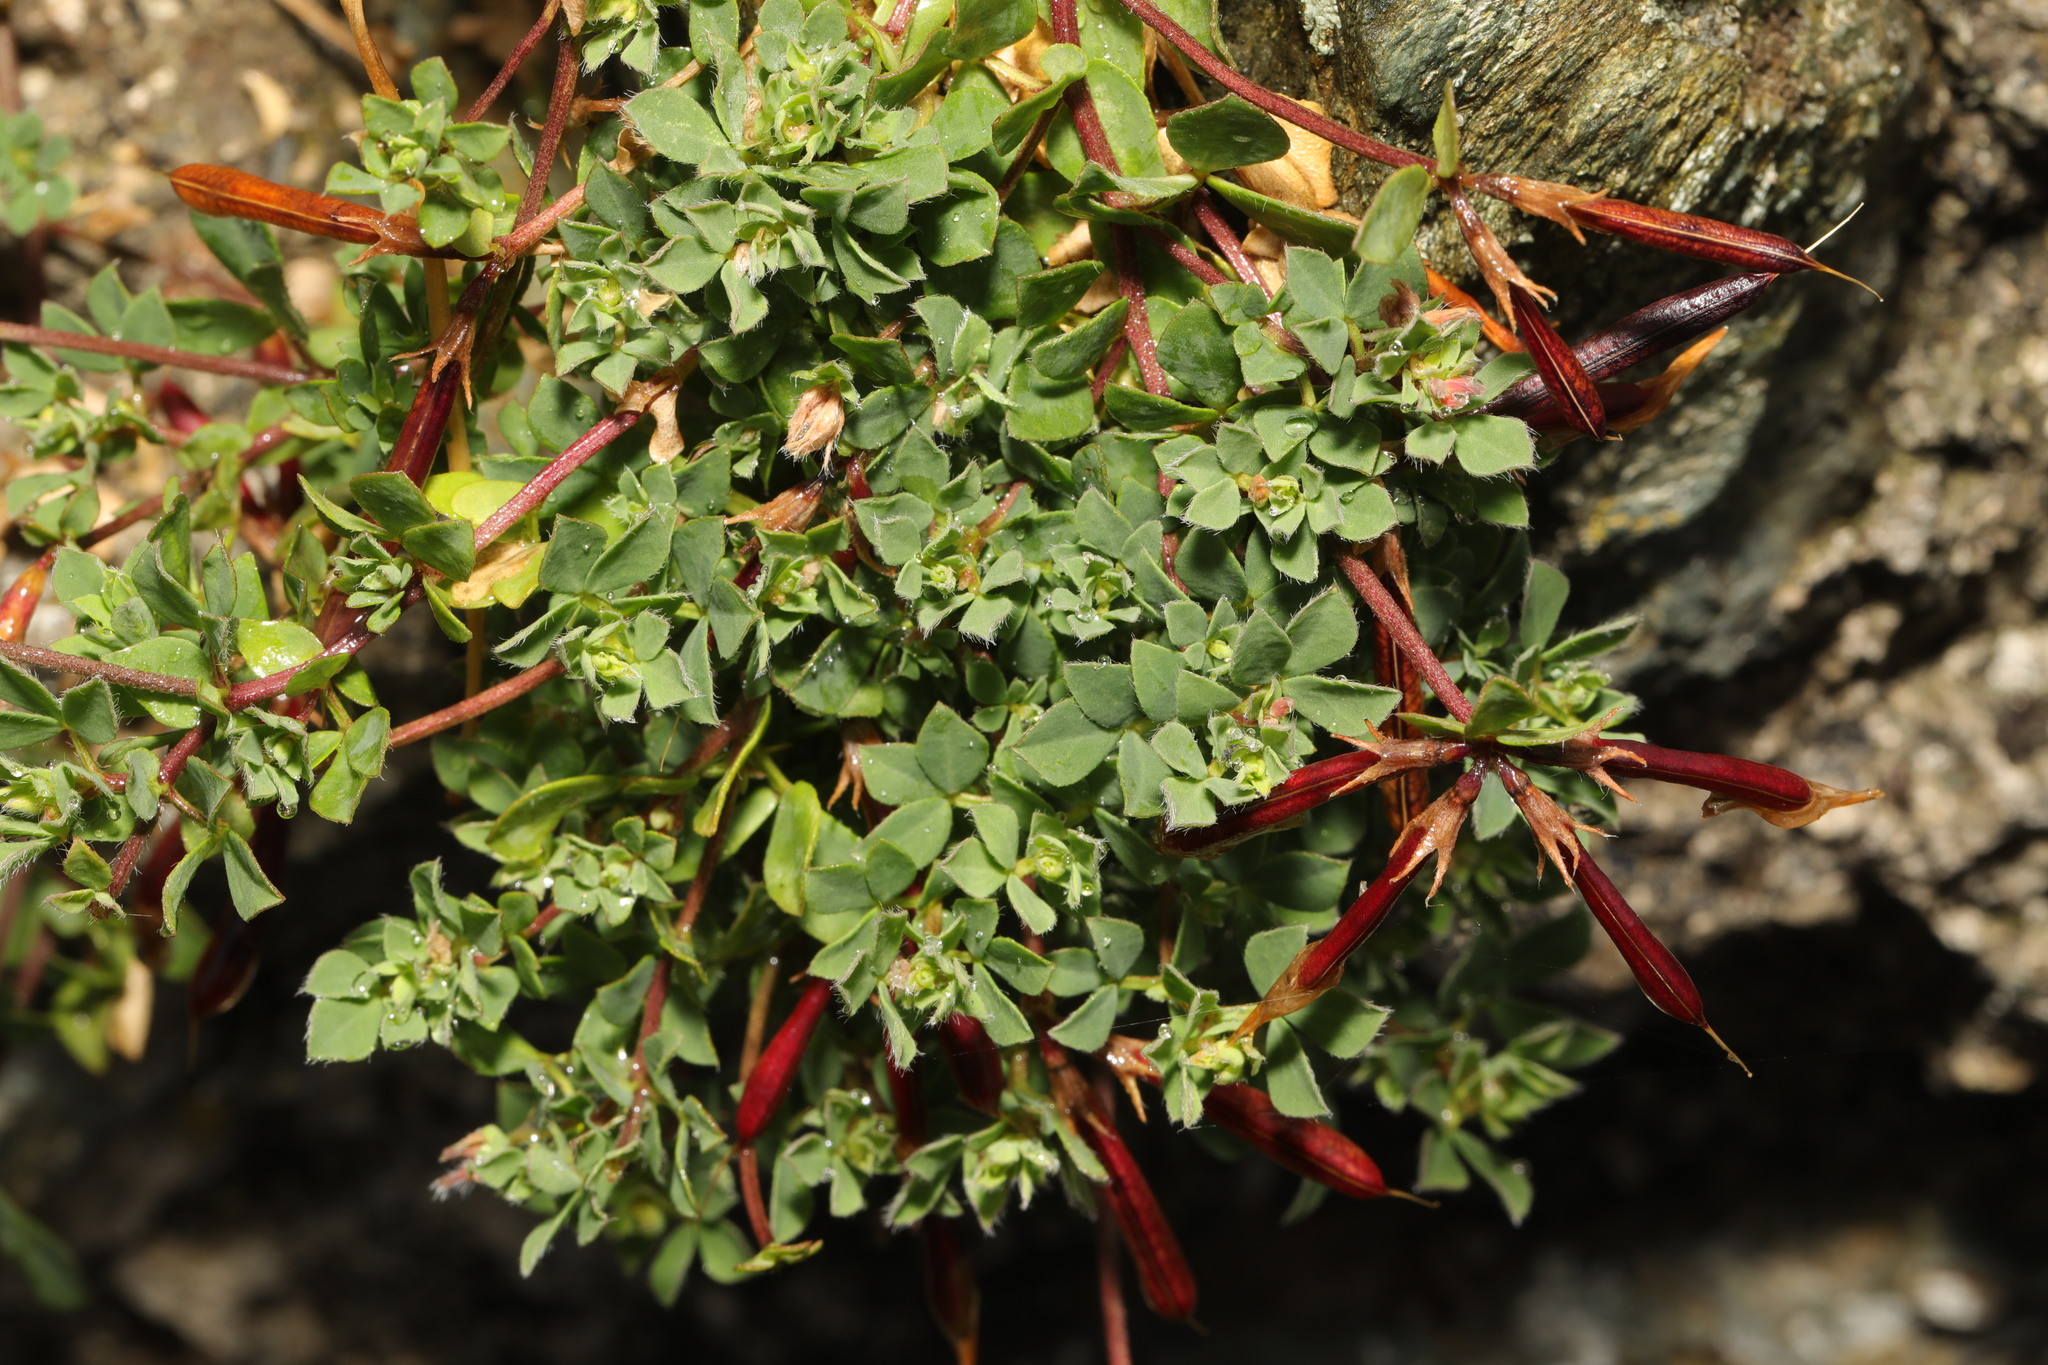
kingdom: Plantae
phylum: Tracheophyta
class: Magnoliopsida
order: Fabales
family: Fabaceae
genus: Lotus
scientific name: Lotus corniculatus
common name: Common bird's-foot-trefoil
